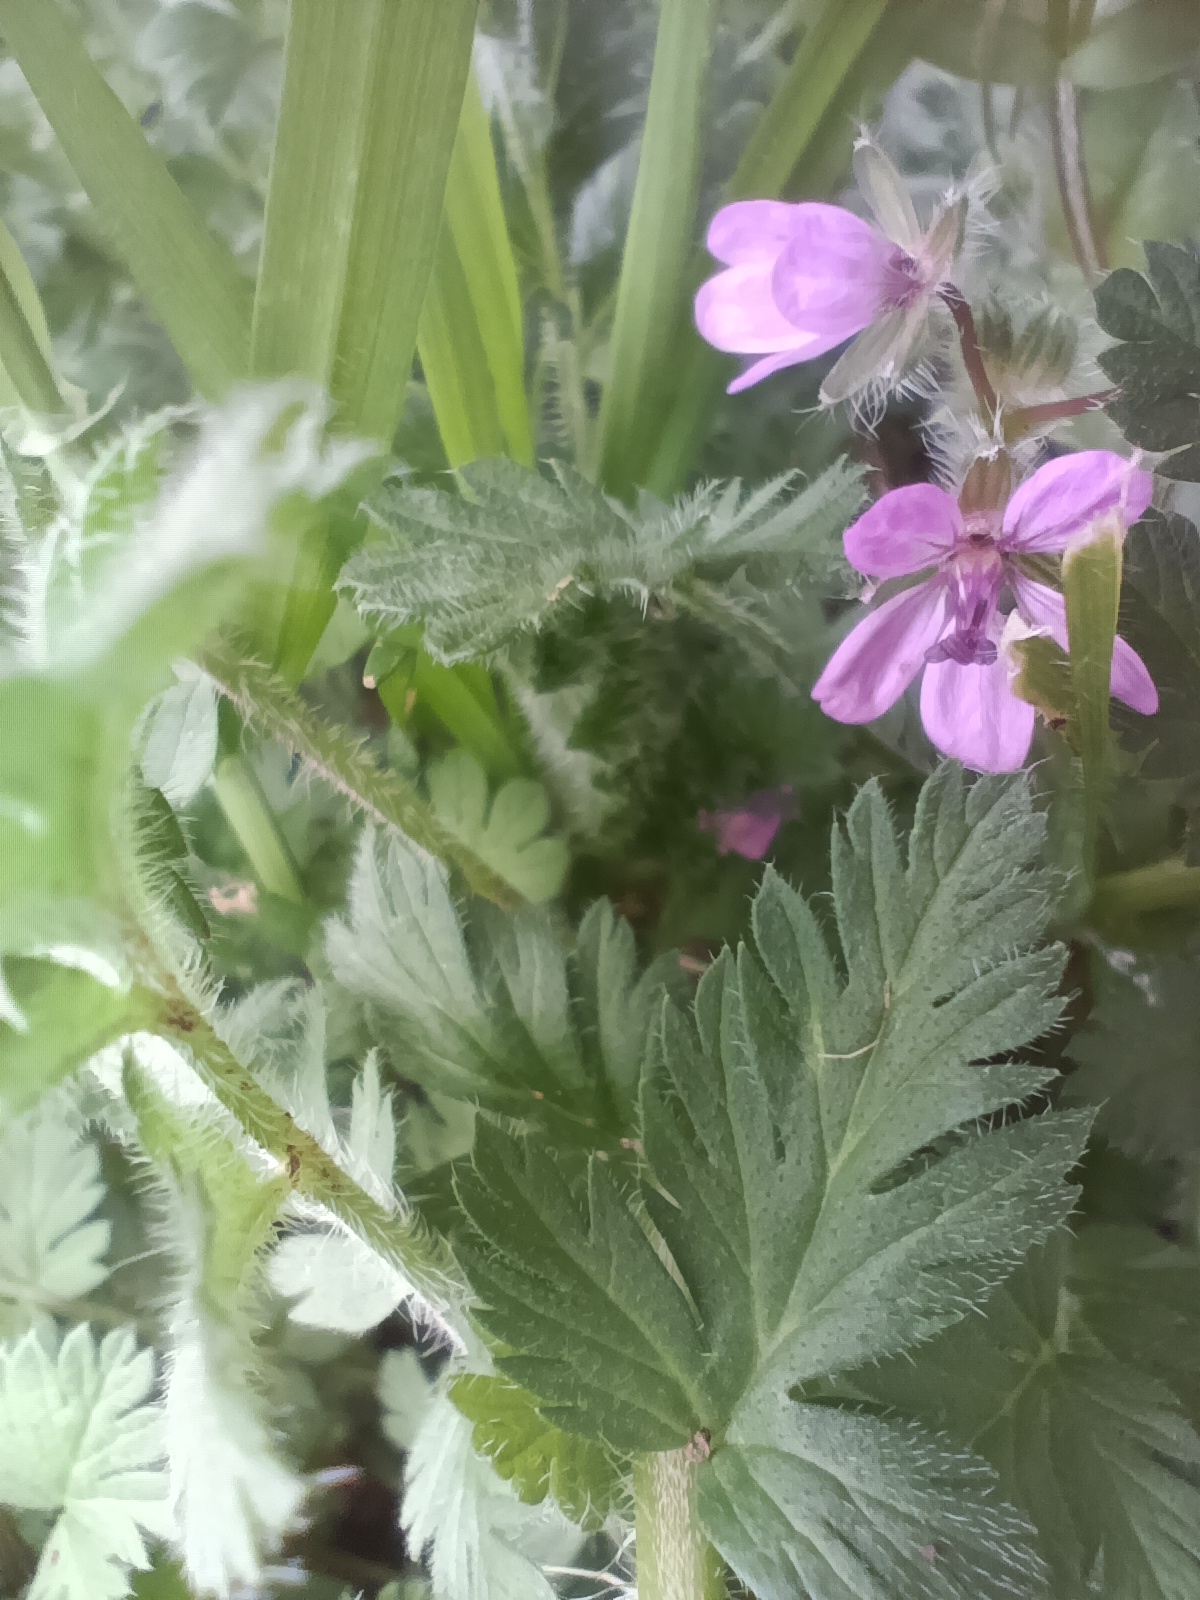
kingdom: Plantae
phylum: Tracheophyta
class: Magnoliopsida
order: Geraniales
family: Geraniaceae
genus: Erodium
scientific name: Erodium cicutarium
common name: Common stork's-bill
